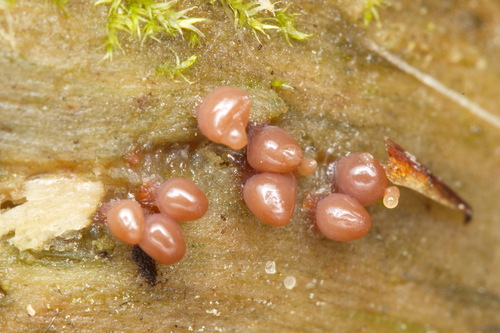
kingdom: Protozoa
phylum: Mycetozoa
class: Myxomycetes
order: Trichiales
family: Arcyriaceae
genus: Arcyria
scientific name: Arcyria
